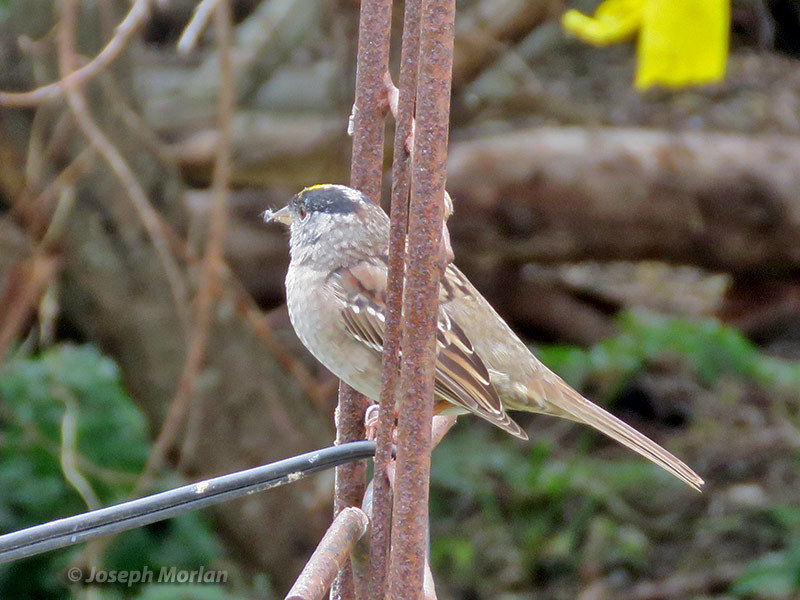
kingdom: Animalia
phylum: Chordata
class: Aves
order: Passeriformes
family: Passerellidae
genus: Zonotrichia
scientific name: Zonotrichia atricapilla
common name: Golden-crowned sparrow
